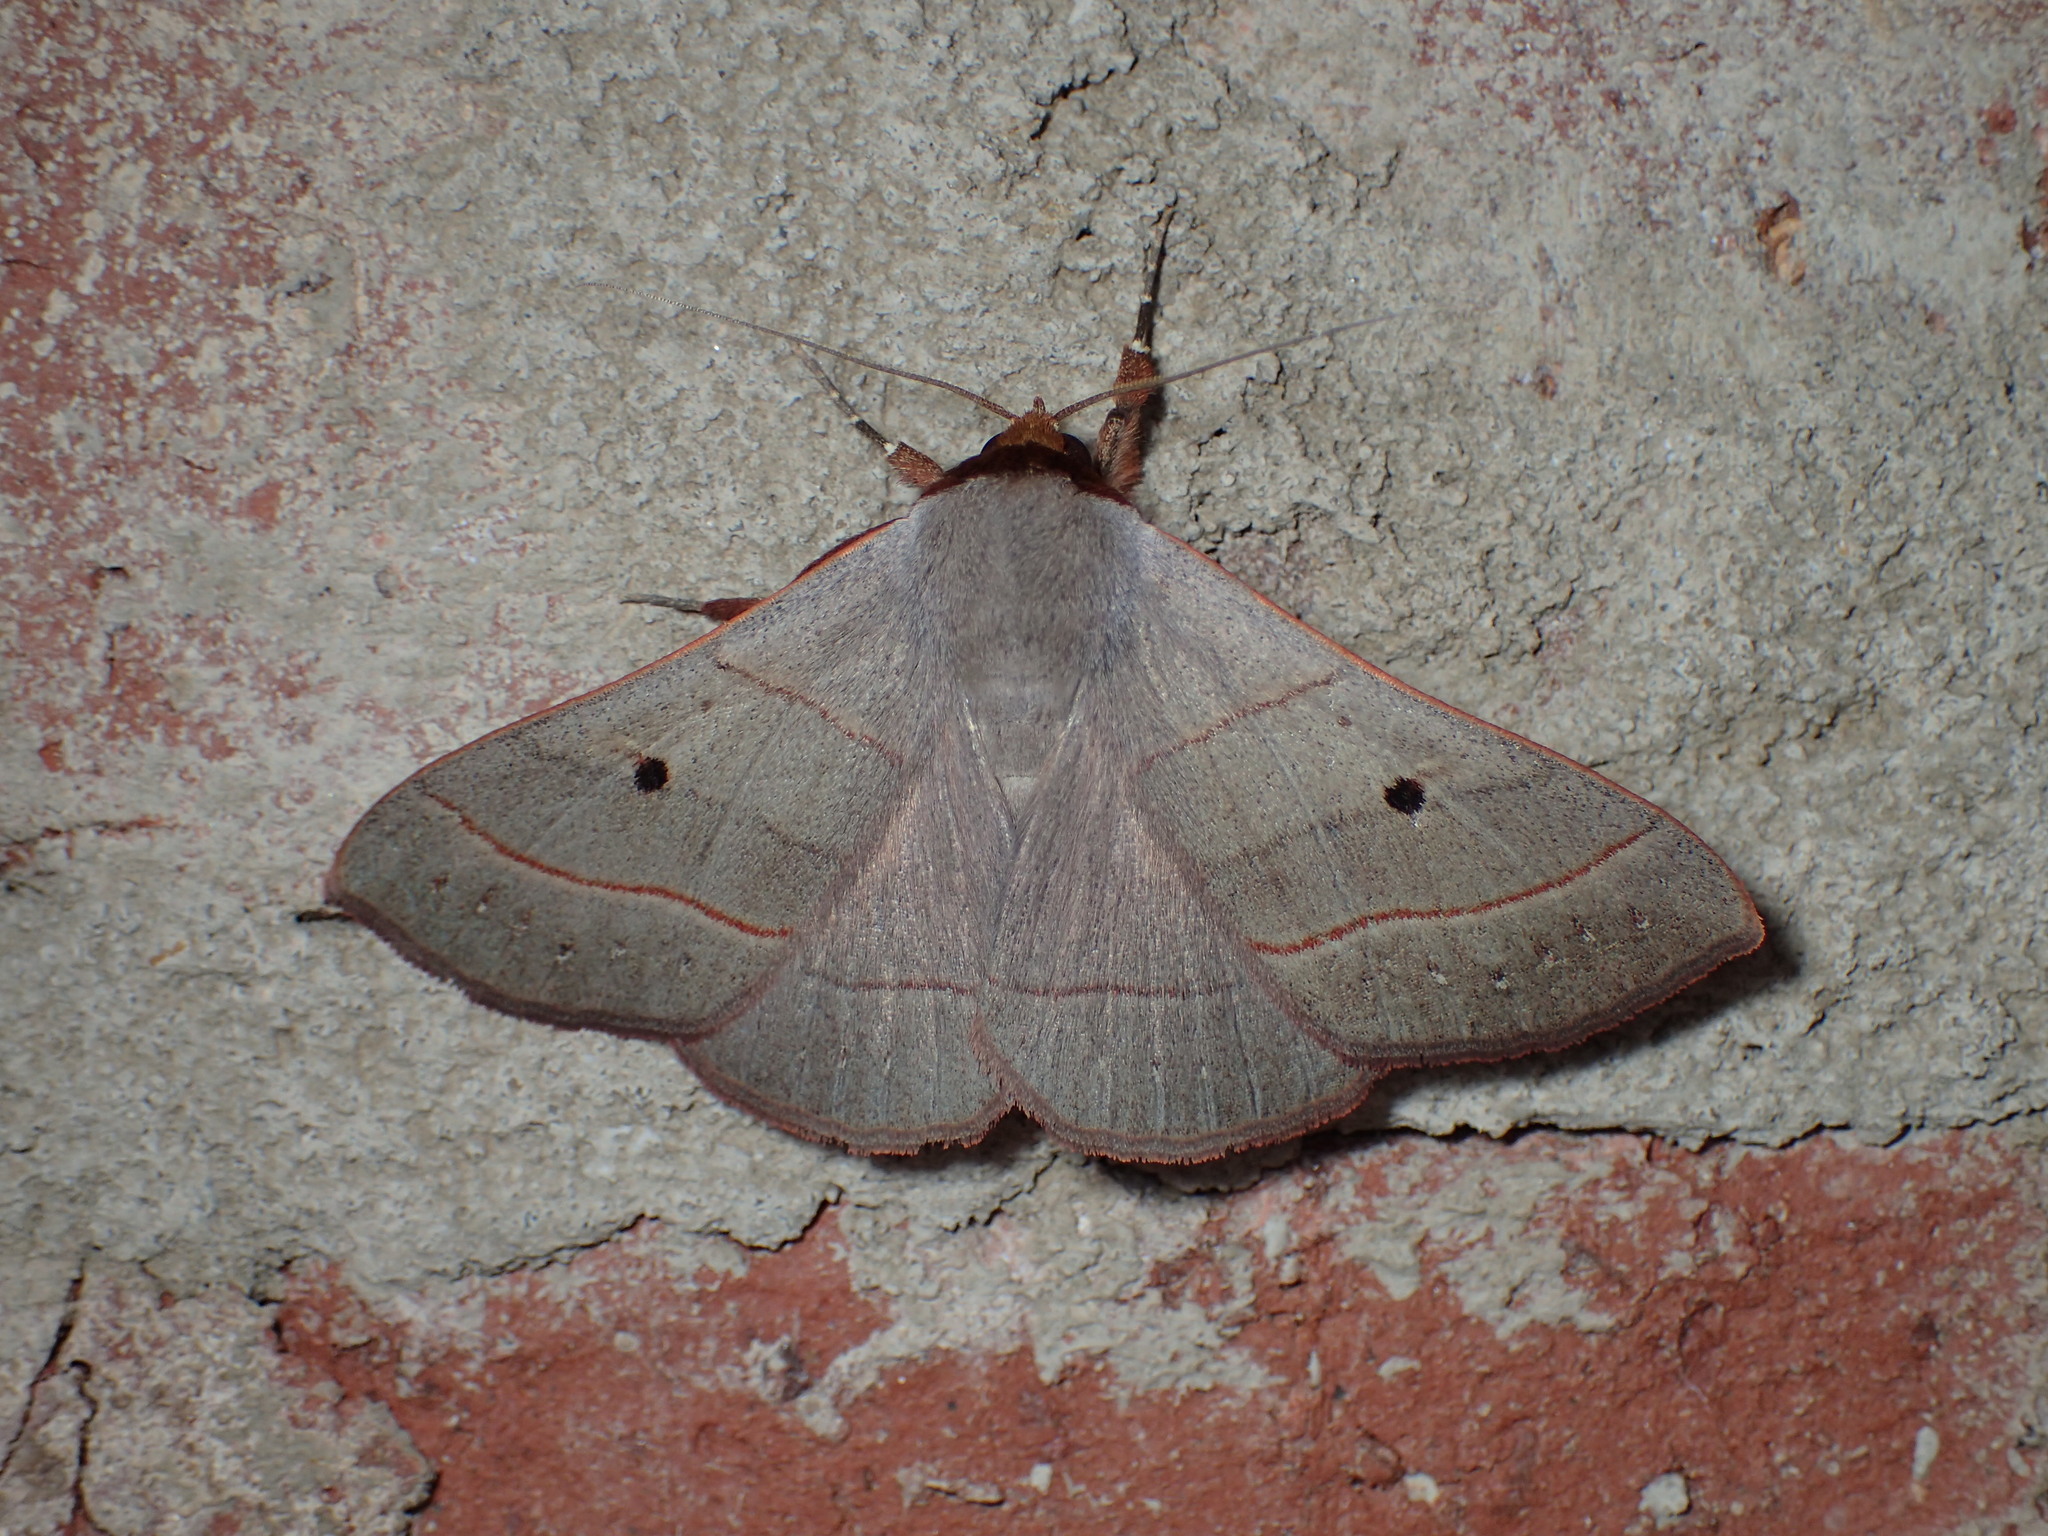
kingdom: Animalia
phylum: Arthropoda
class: Insecta
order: Lepidoptera
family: Erebidae
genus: Panopoda
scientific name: Panopoda rufimargo
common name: Red-lined panopoda moth
